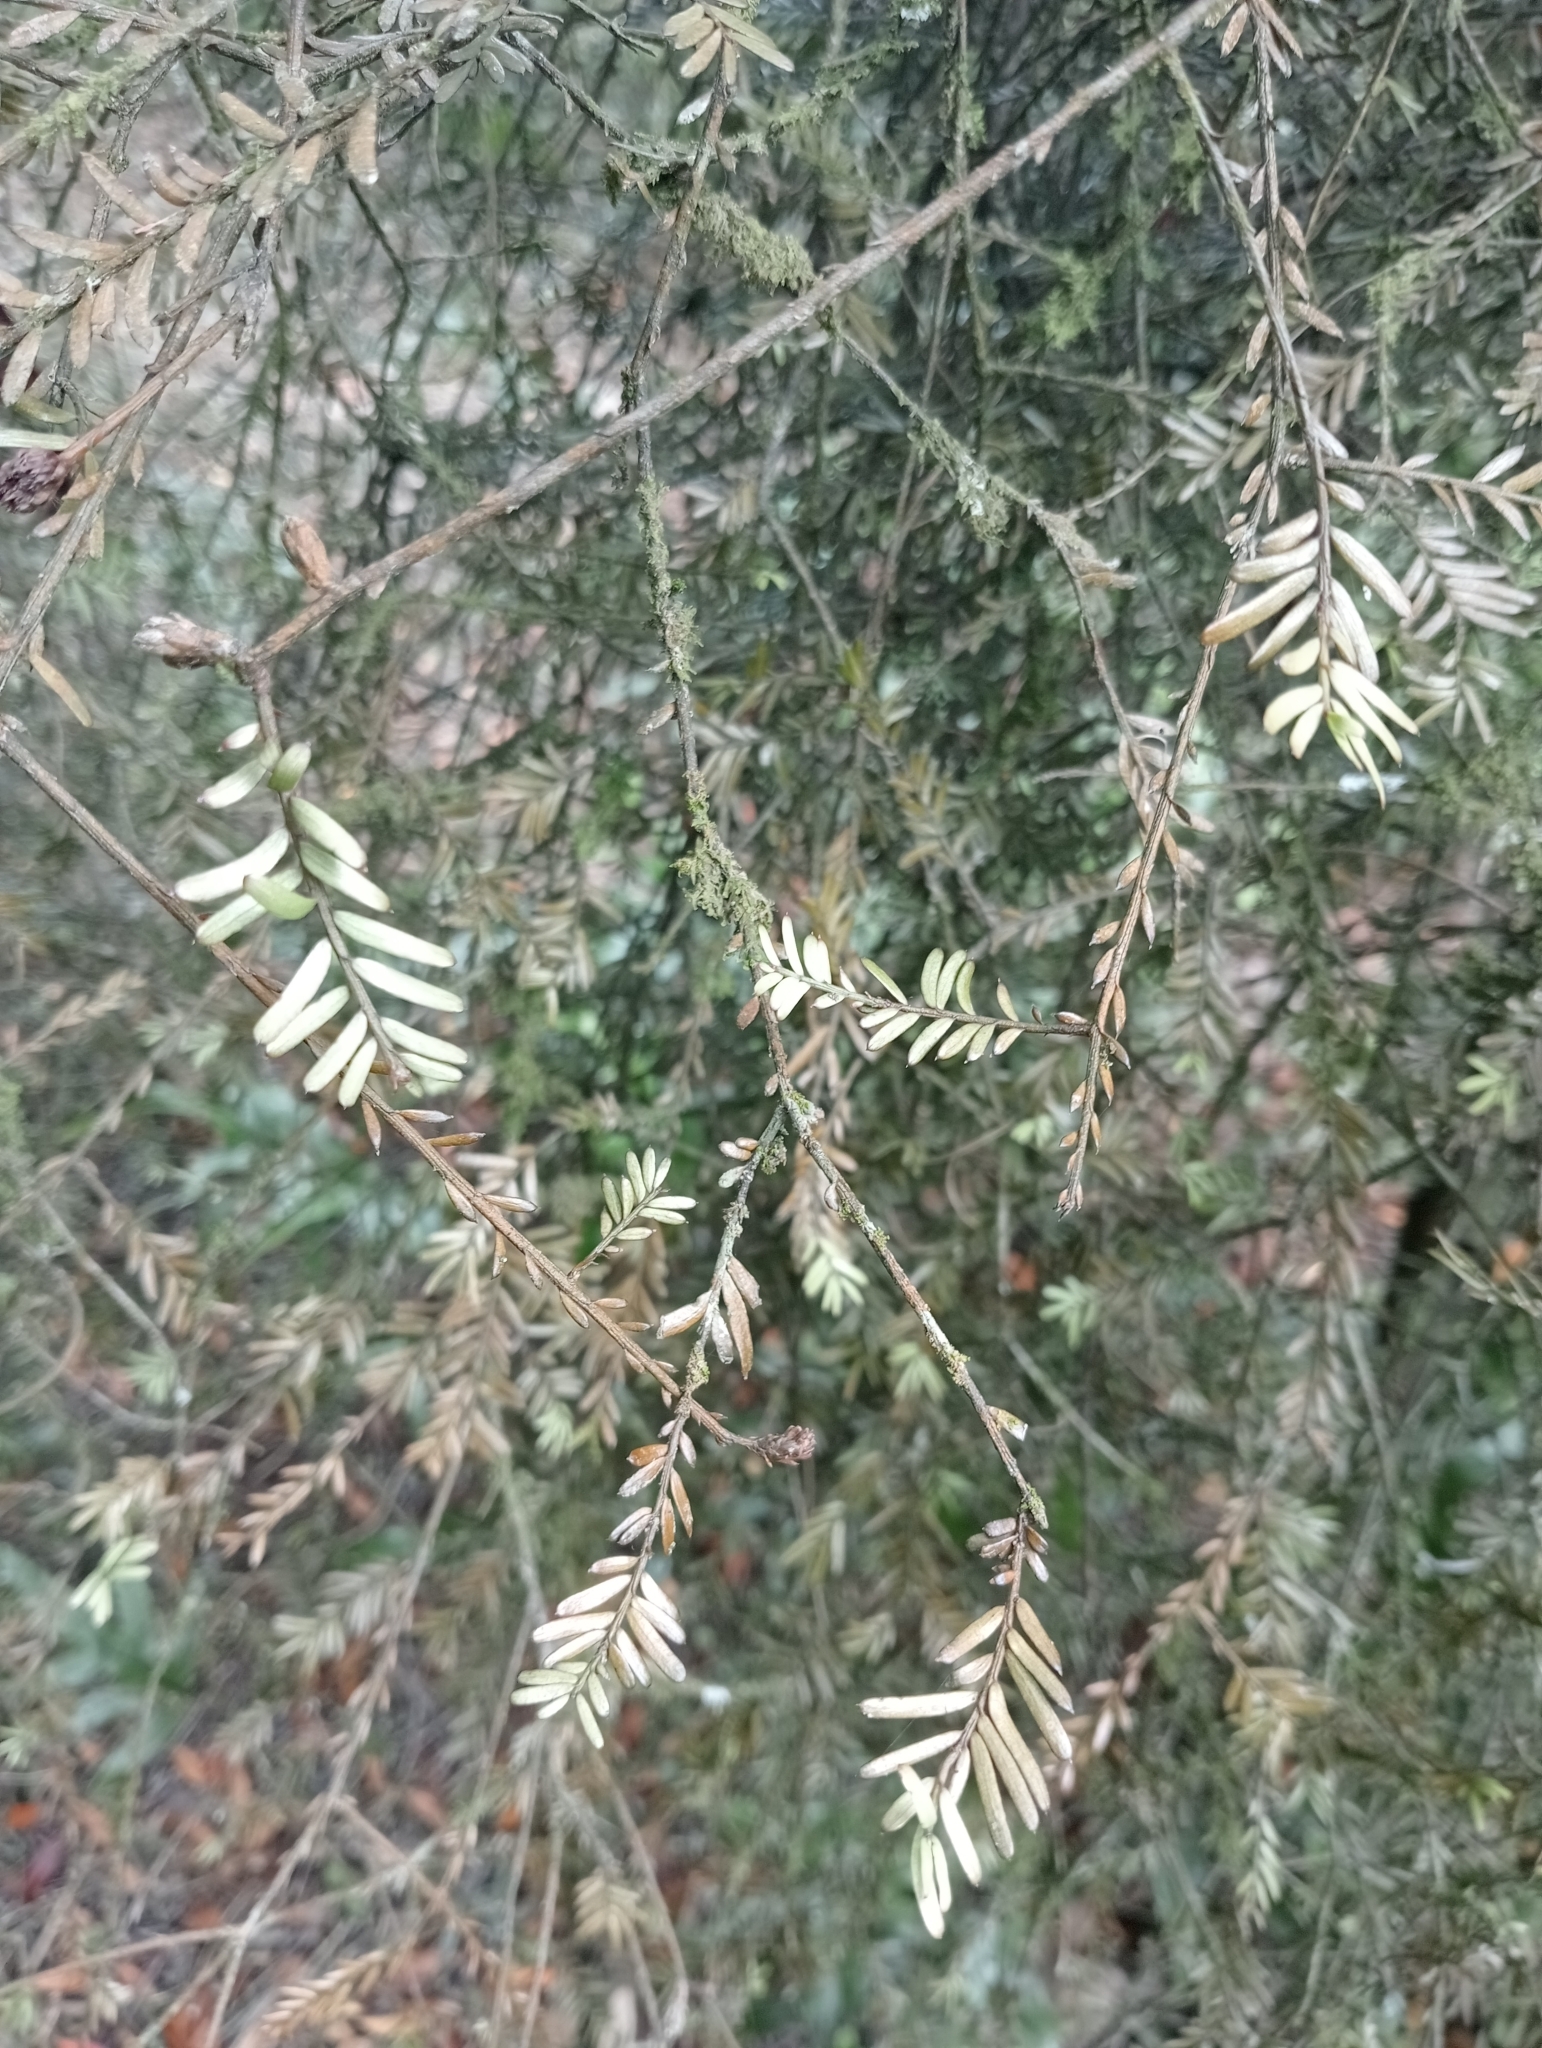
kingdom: Plantae
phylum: Tracheophyta
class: Pinopsida
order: Pinales
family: Podocarpaceae
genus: Prumnopitys
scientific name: Prumnopitys taxifolia
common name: Matai
